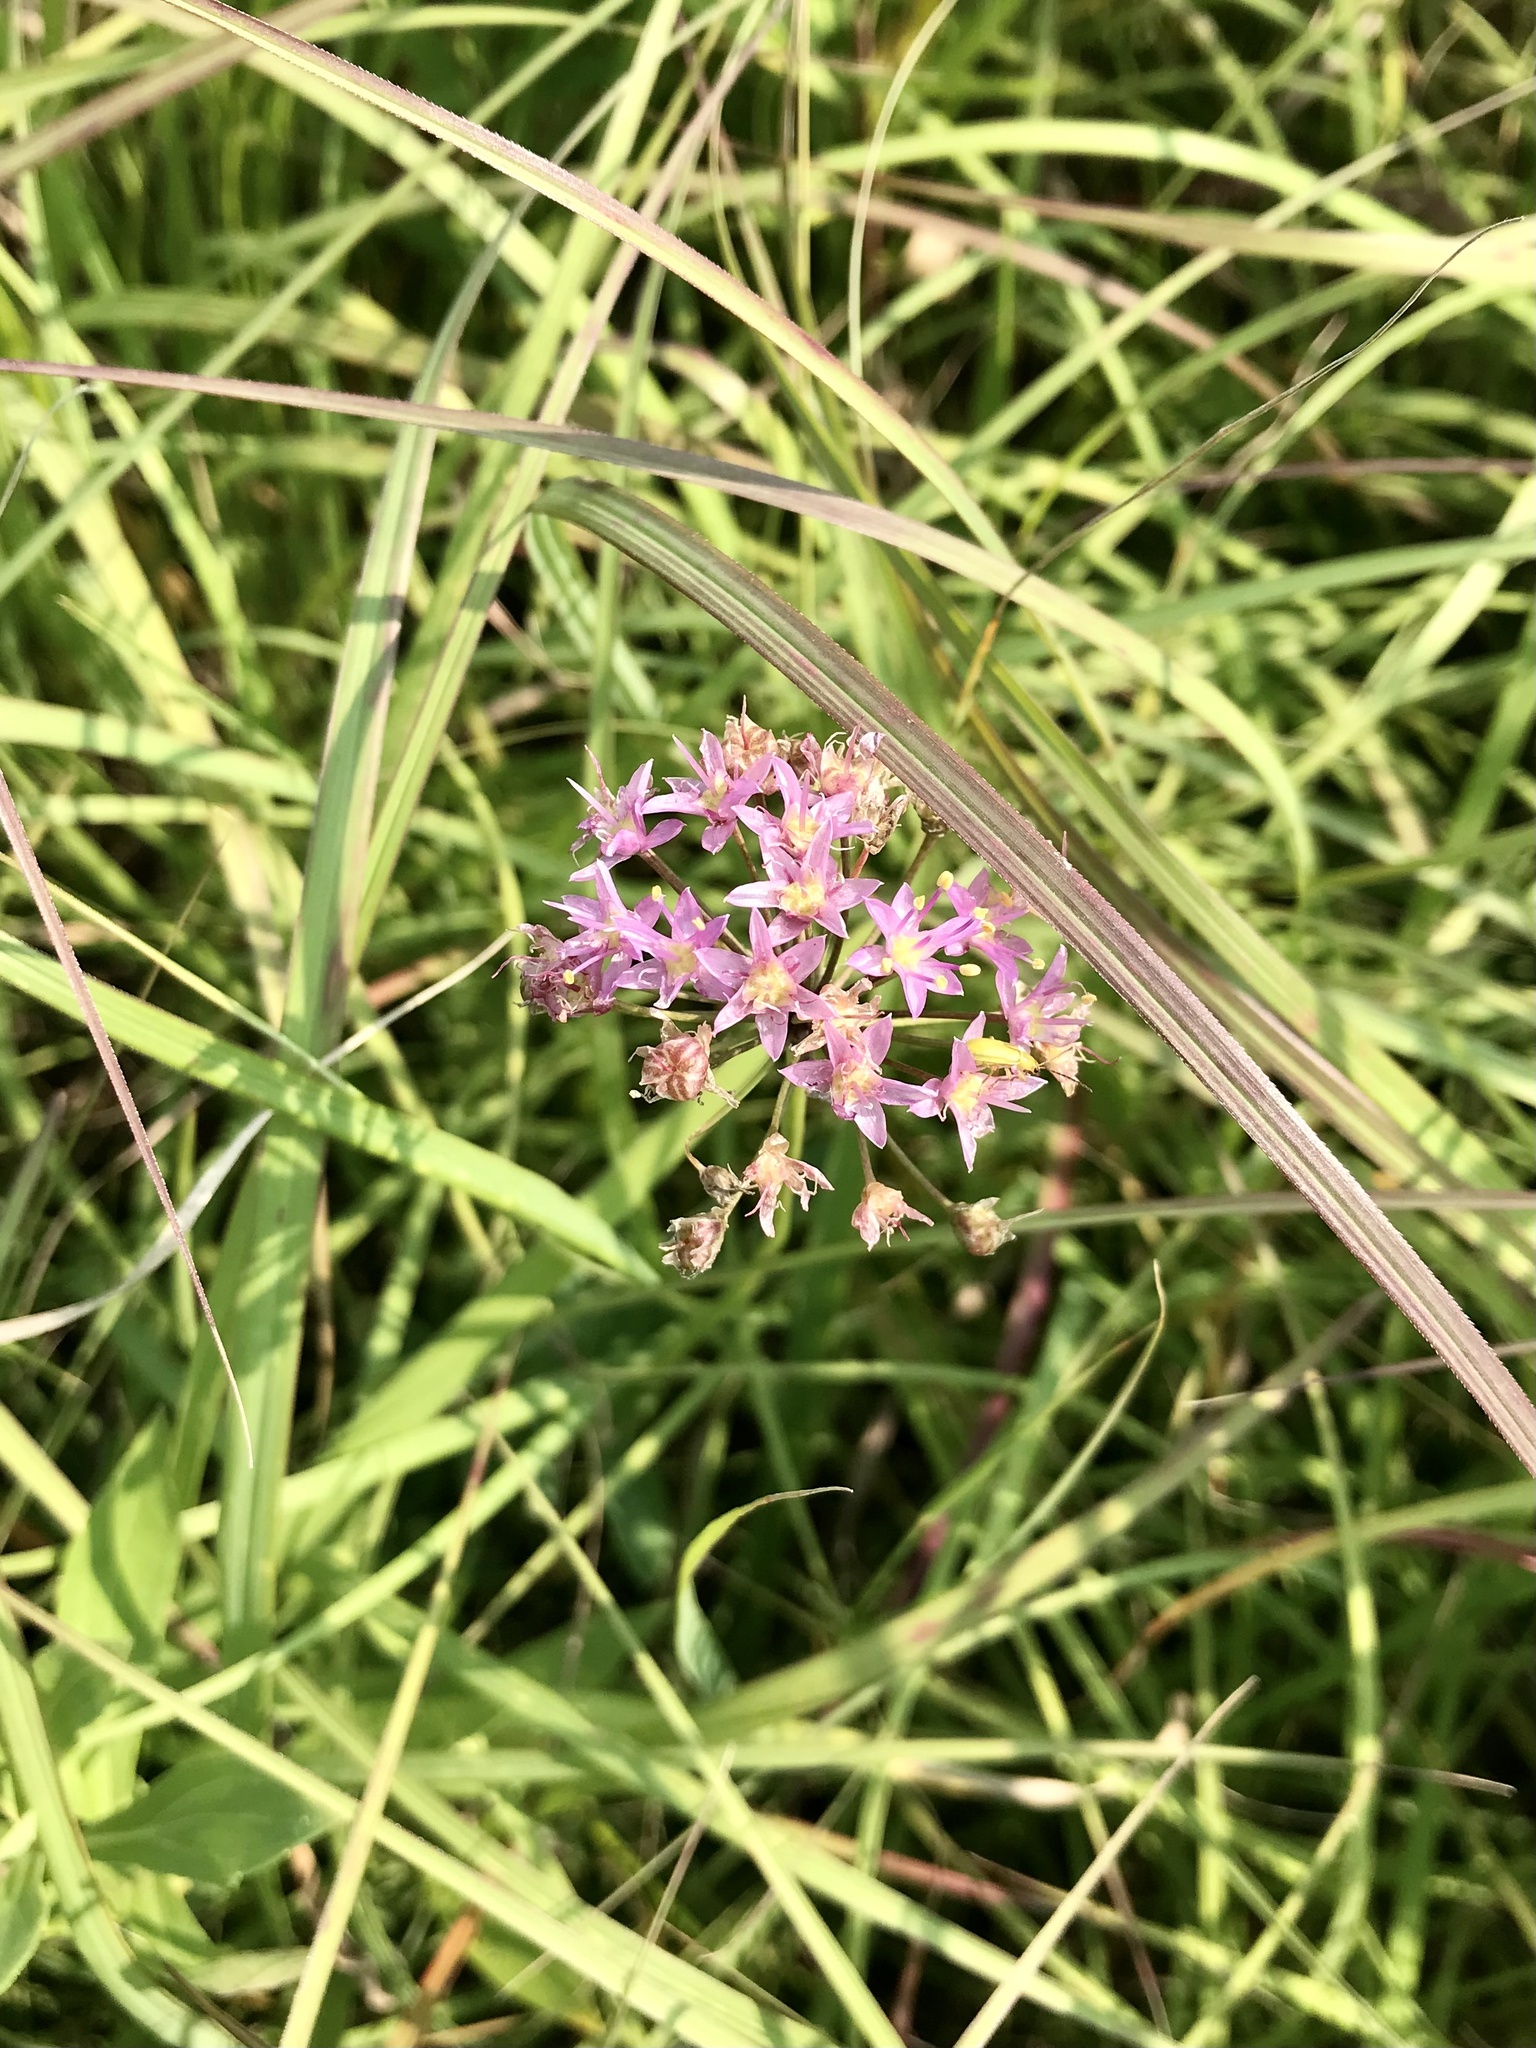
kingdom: Plantae
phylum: Tracheophyta
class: Liliopsida
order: Asparagales
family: Amaryllidaceae
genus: Allium
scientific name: Allium stellatum
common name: Autumn onion
